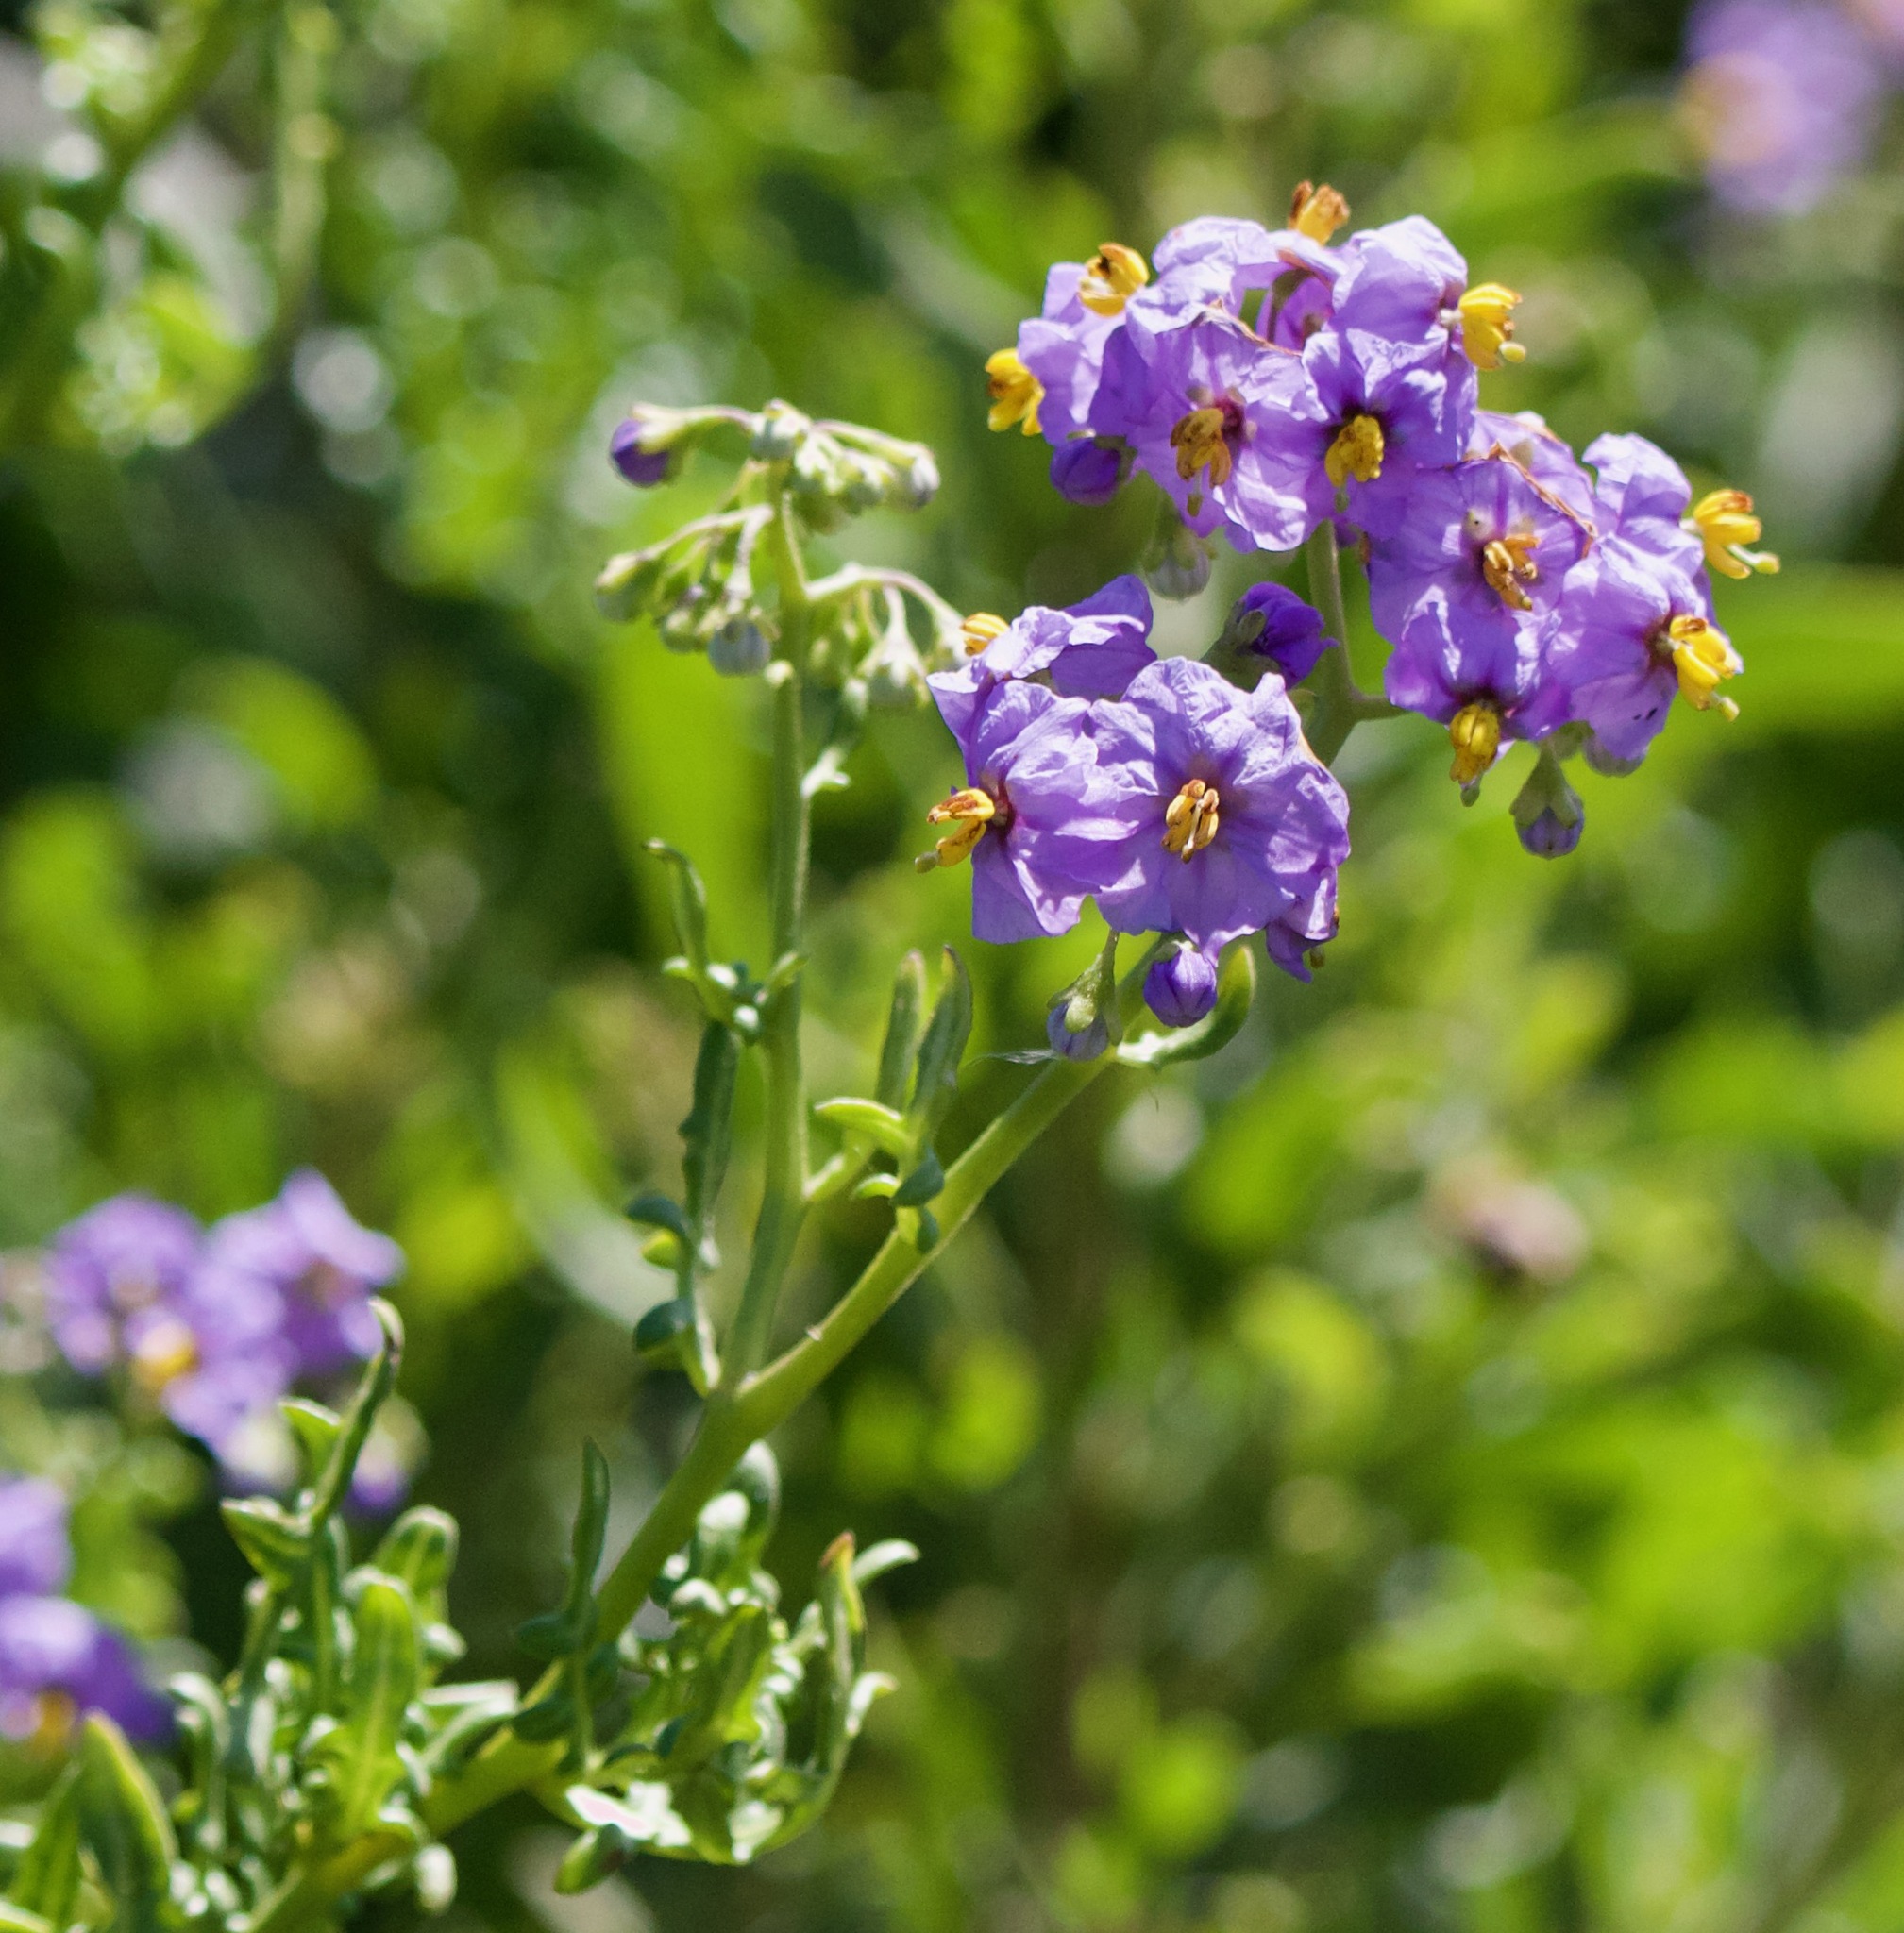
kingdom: Plantae
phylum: Tracheophyta
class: Magnoliopsida
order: Solanales
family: Solanaceae
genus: Solanum
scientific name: Solanum pinnatum
